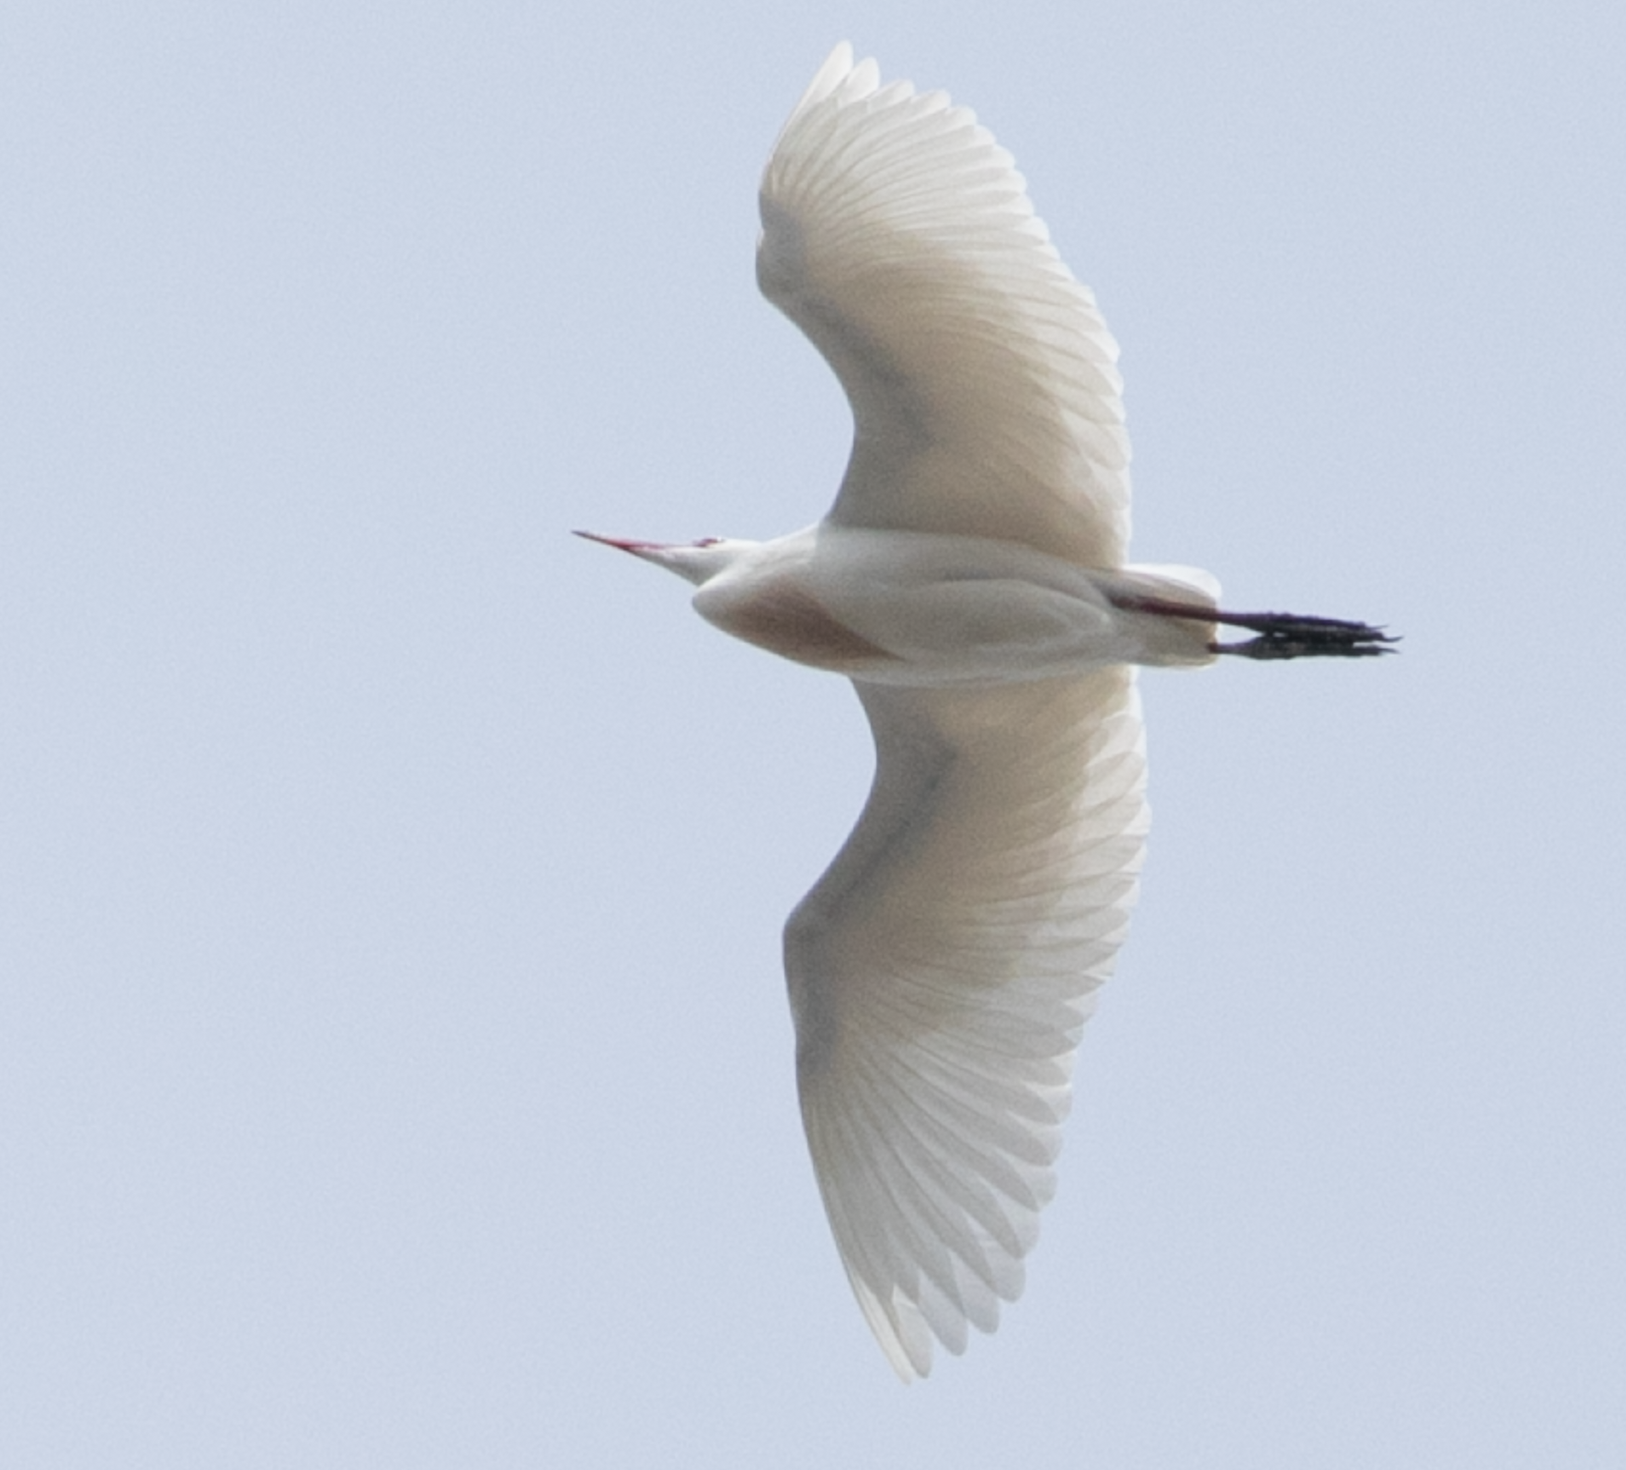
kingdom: Animalia
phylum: Chordata
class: Aves
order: Pelecaniformes
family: Ardeidae
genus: Bubulcus
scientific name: Bubulcus ibis
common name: Cattle egret
